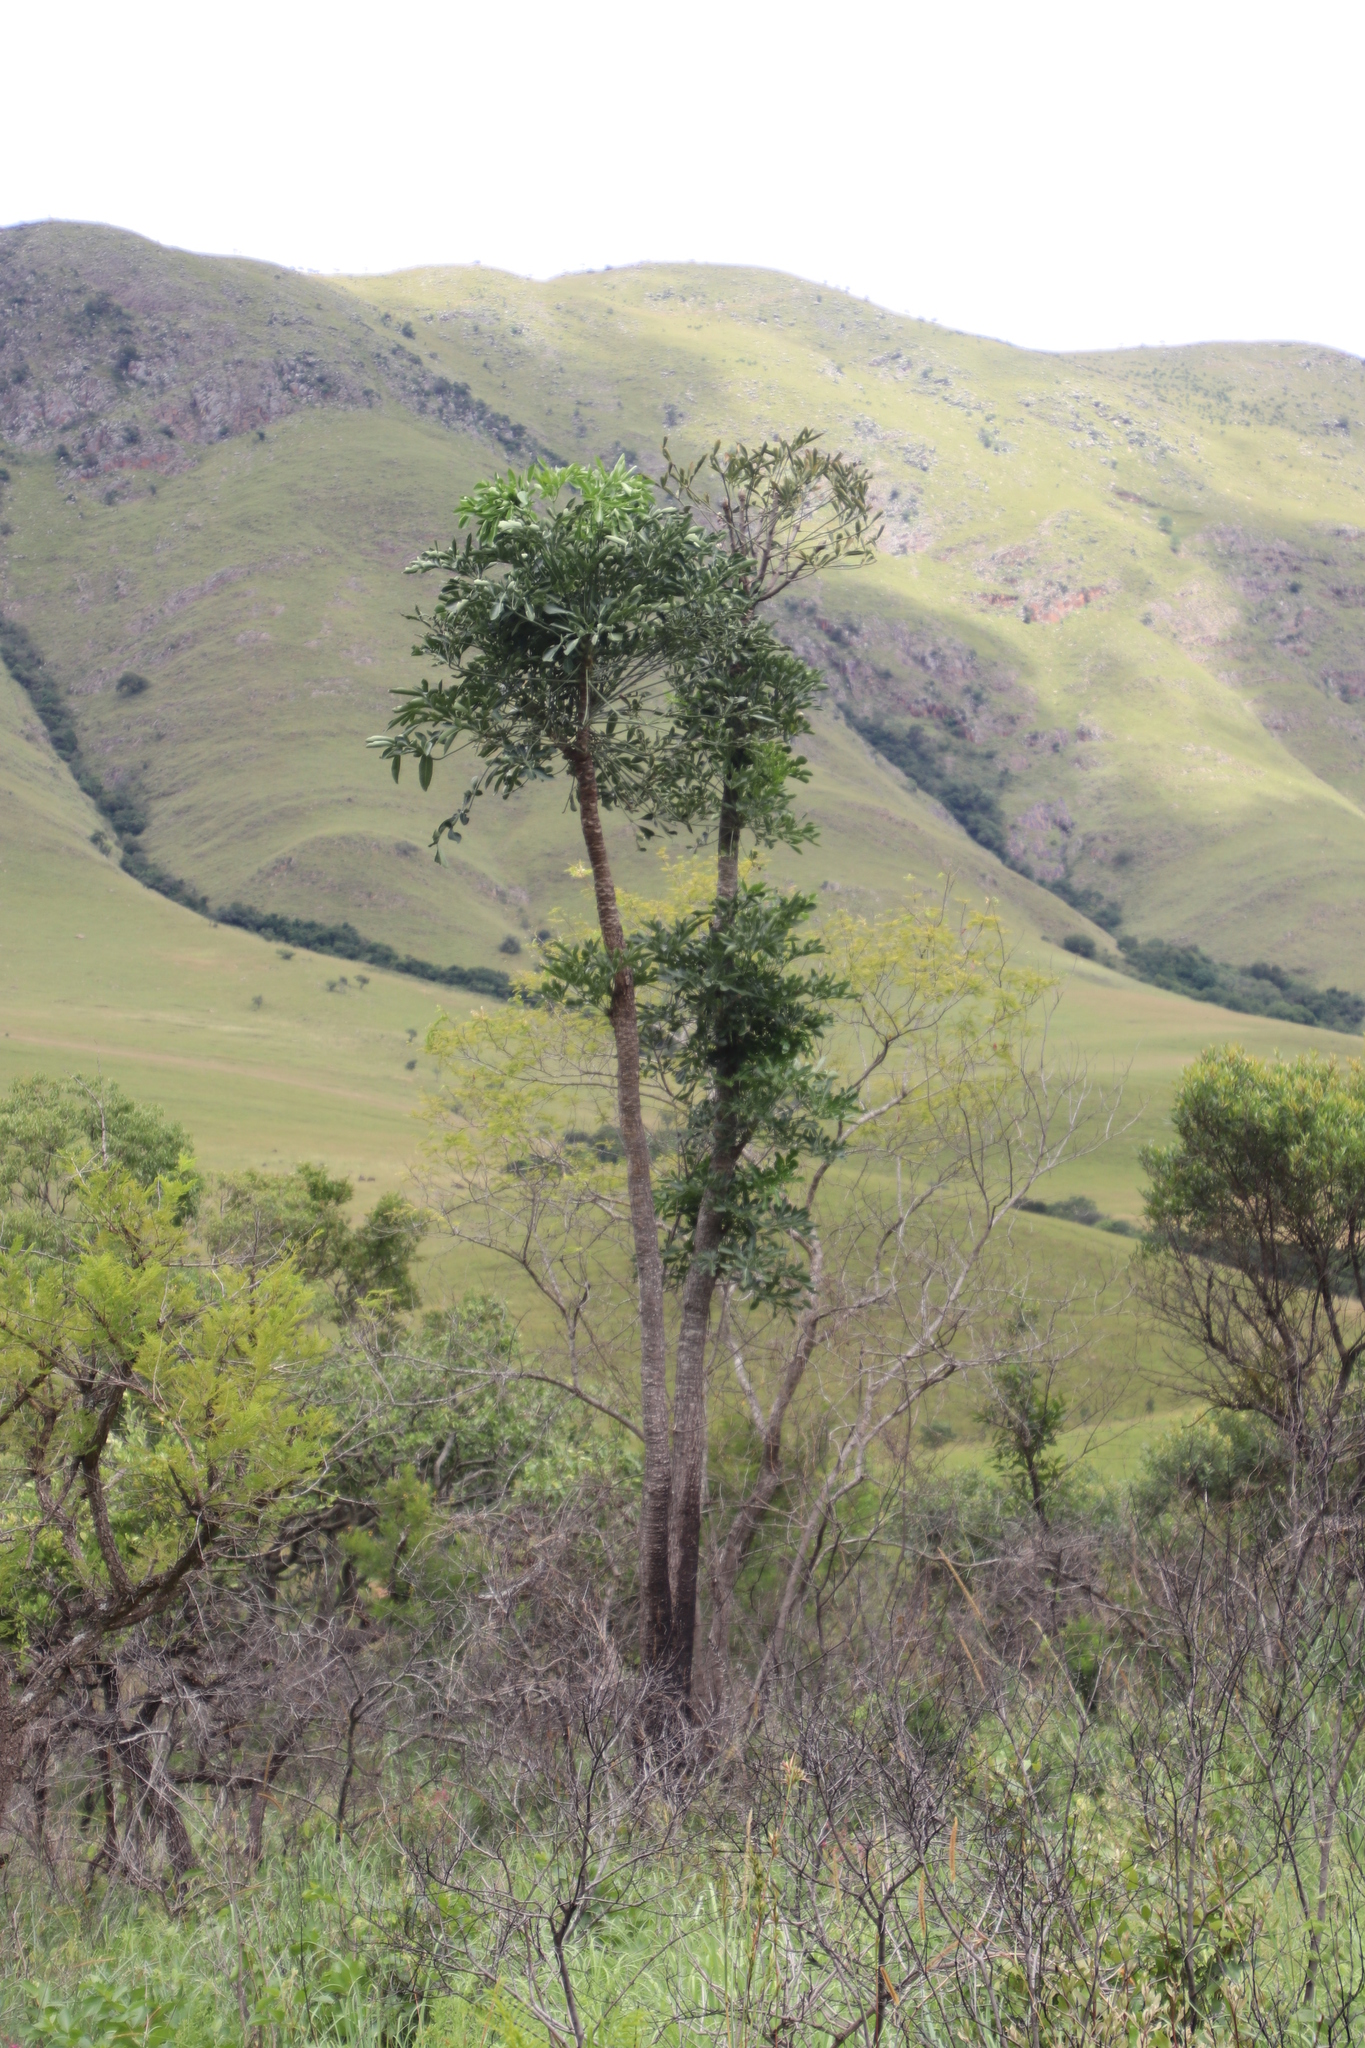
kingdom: Plantae
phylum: Tracheophyta
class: Magnoliopsida
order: Apiales
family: Araliaceae
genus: Cussonia
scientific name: Cussonia spicata
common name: Common cabbagetree
